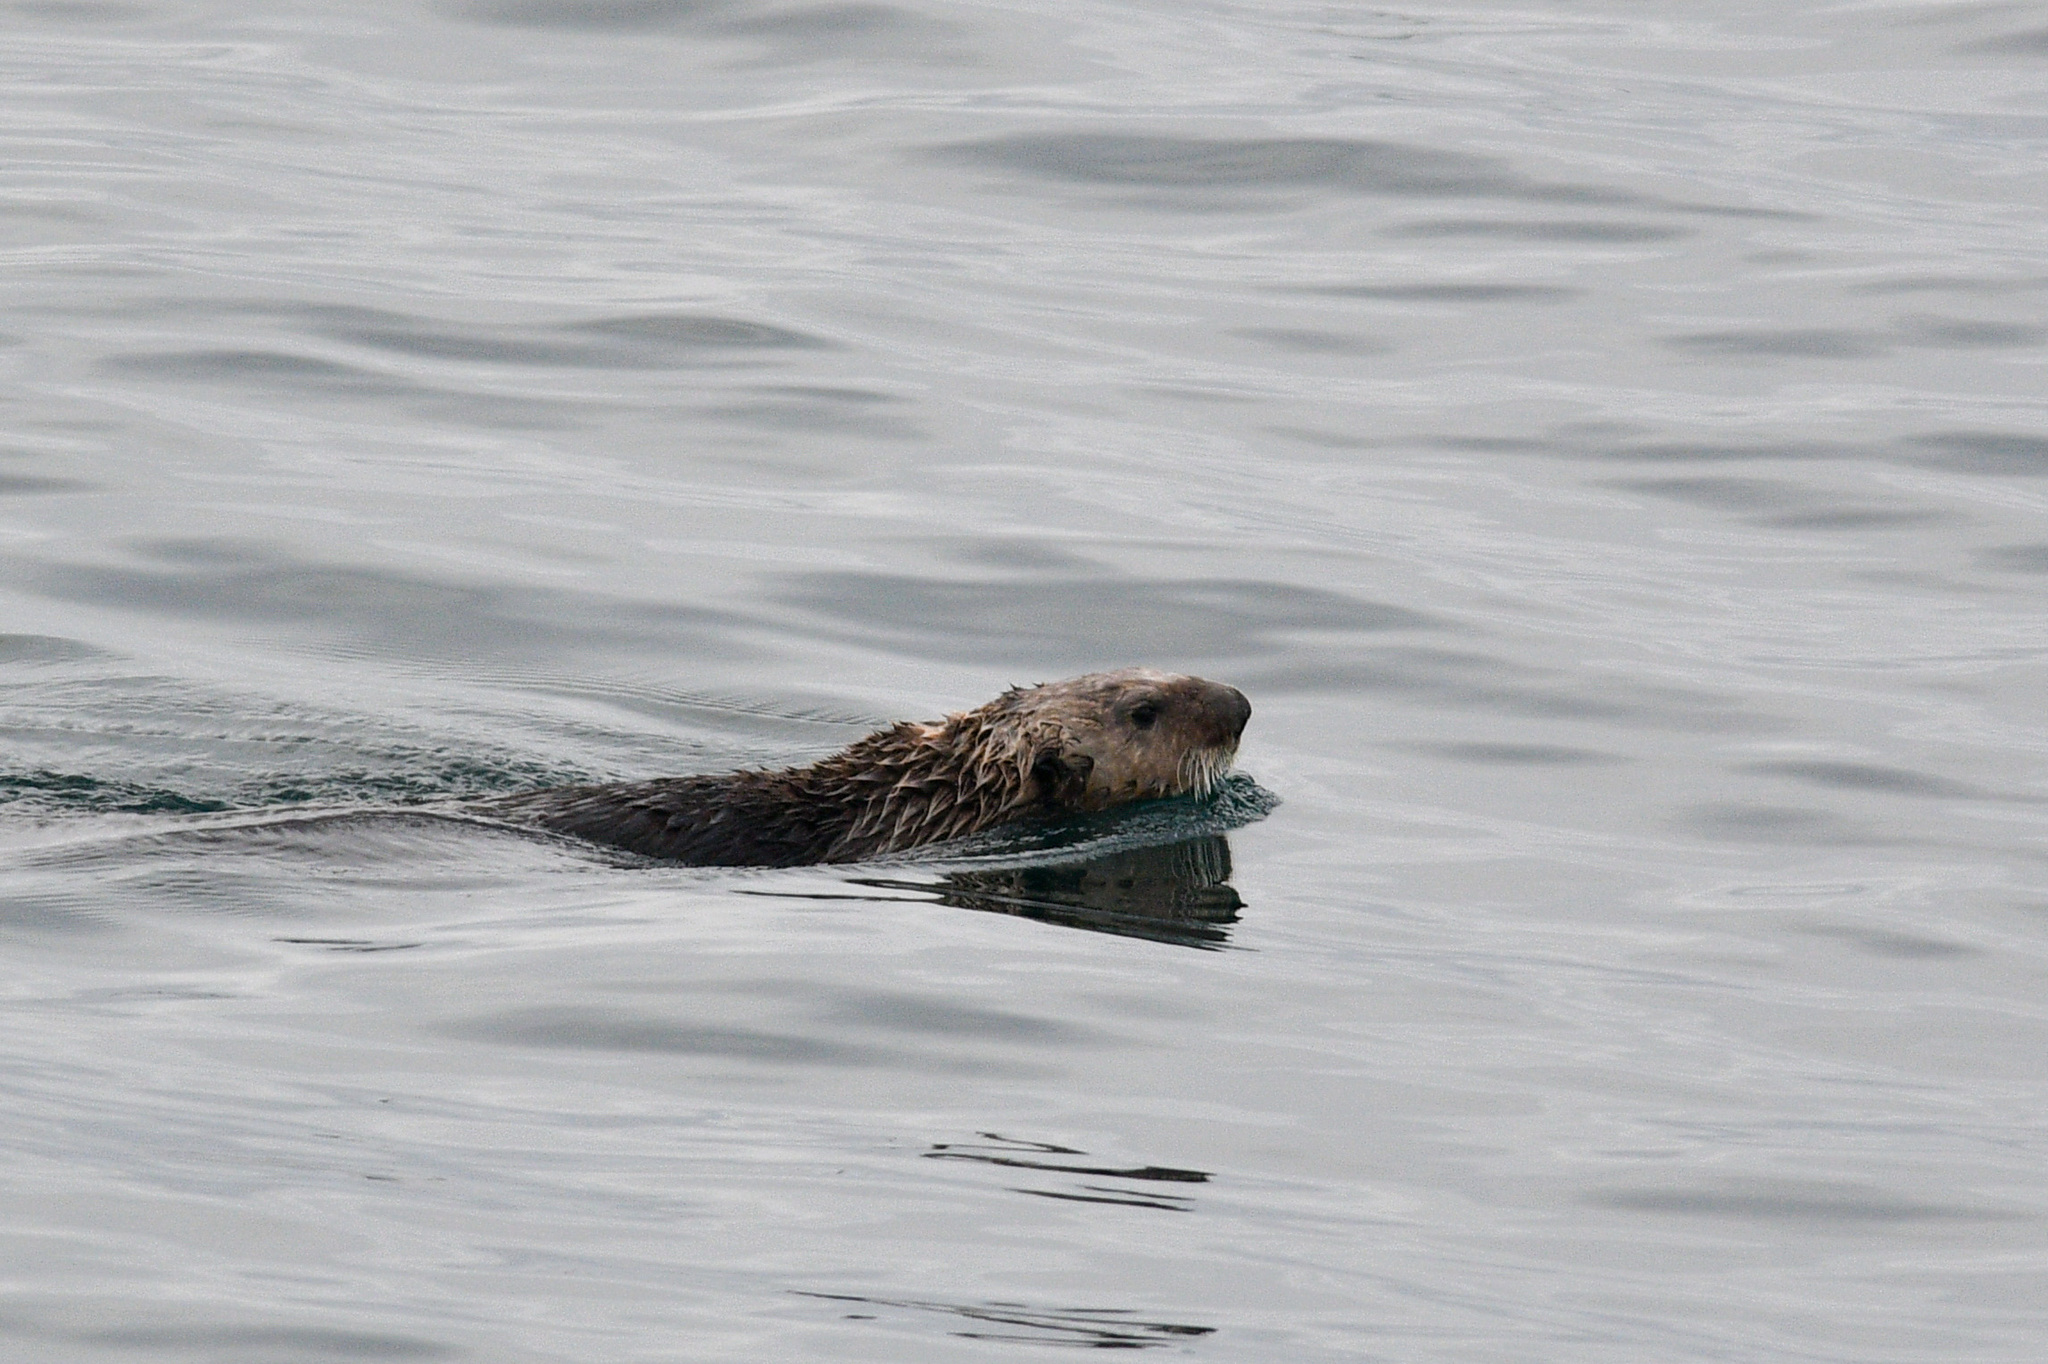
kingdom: Animalia
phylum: Chordata
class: Mammalia
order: Carnivora
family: Mustelidae
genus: Enhydra
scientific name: Enhydra lutris
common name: Sea otter
